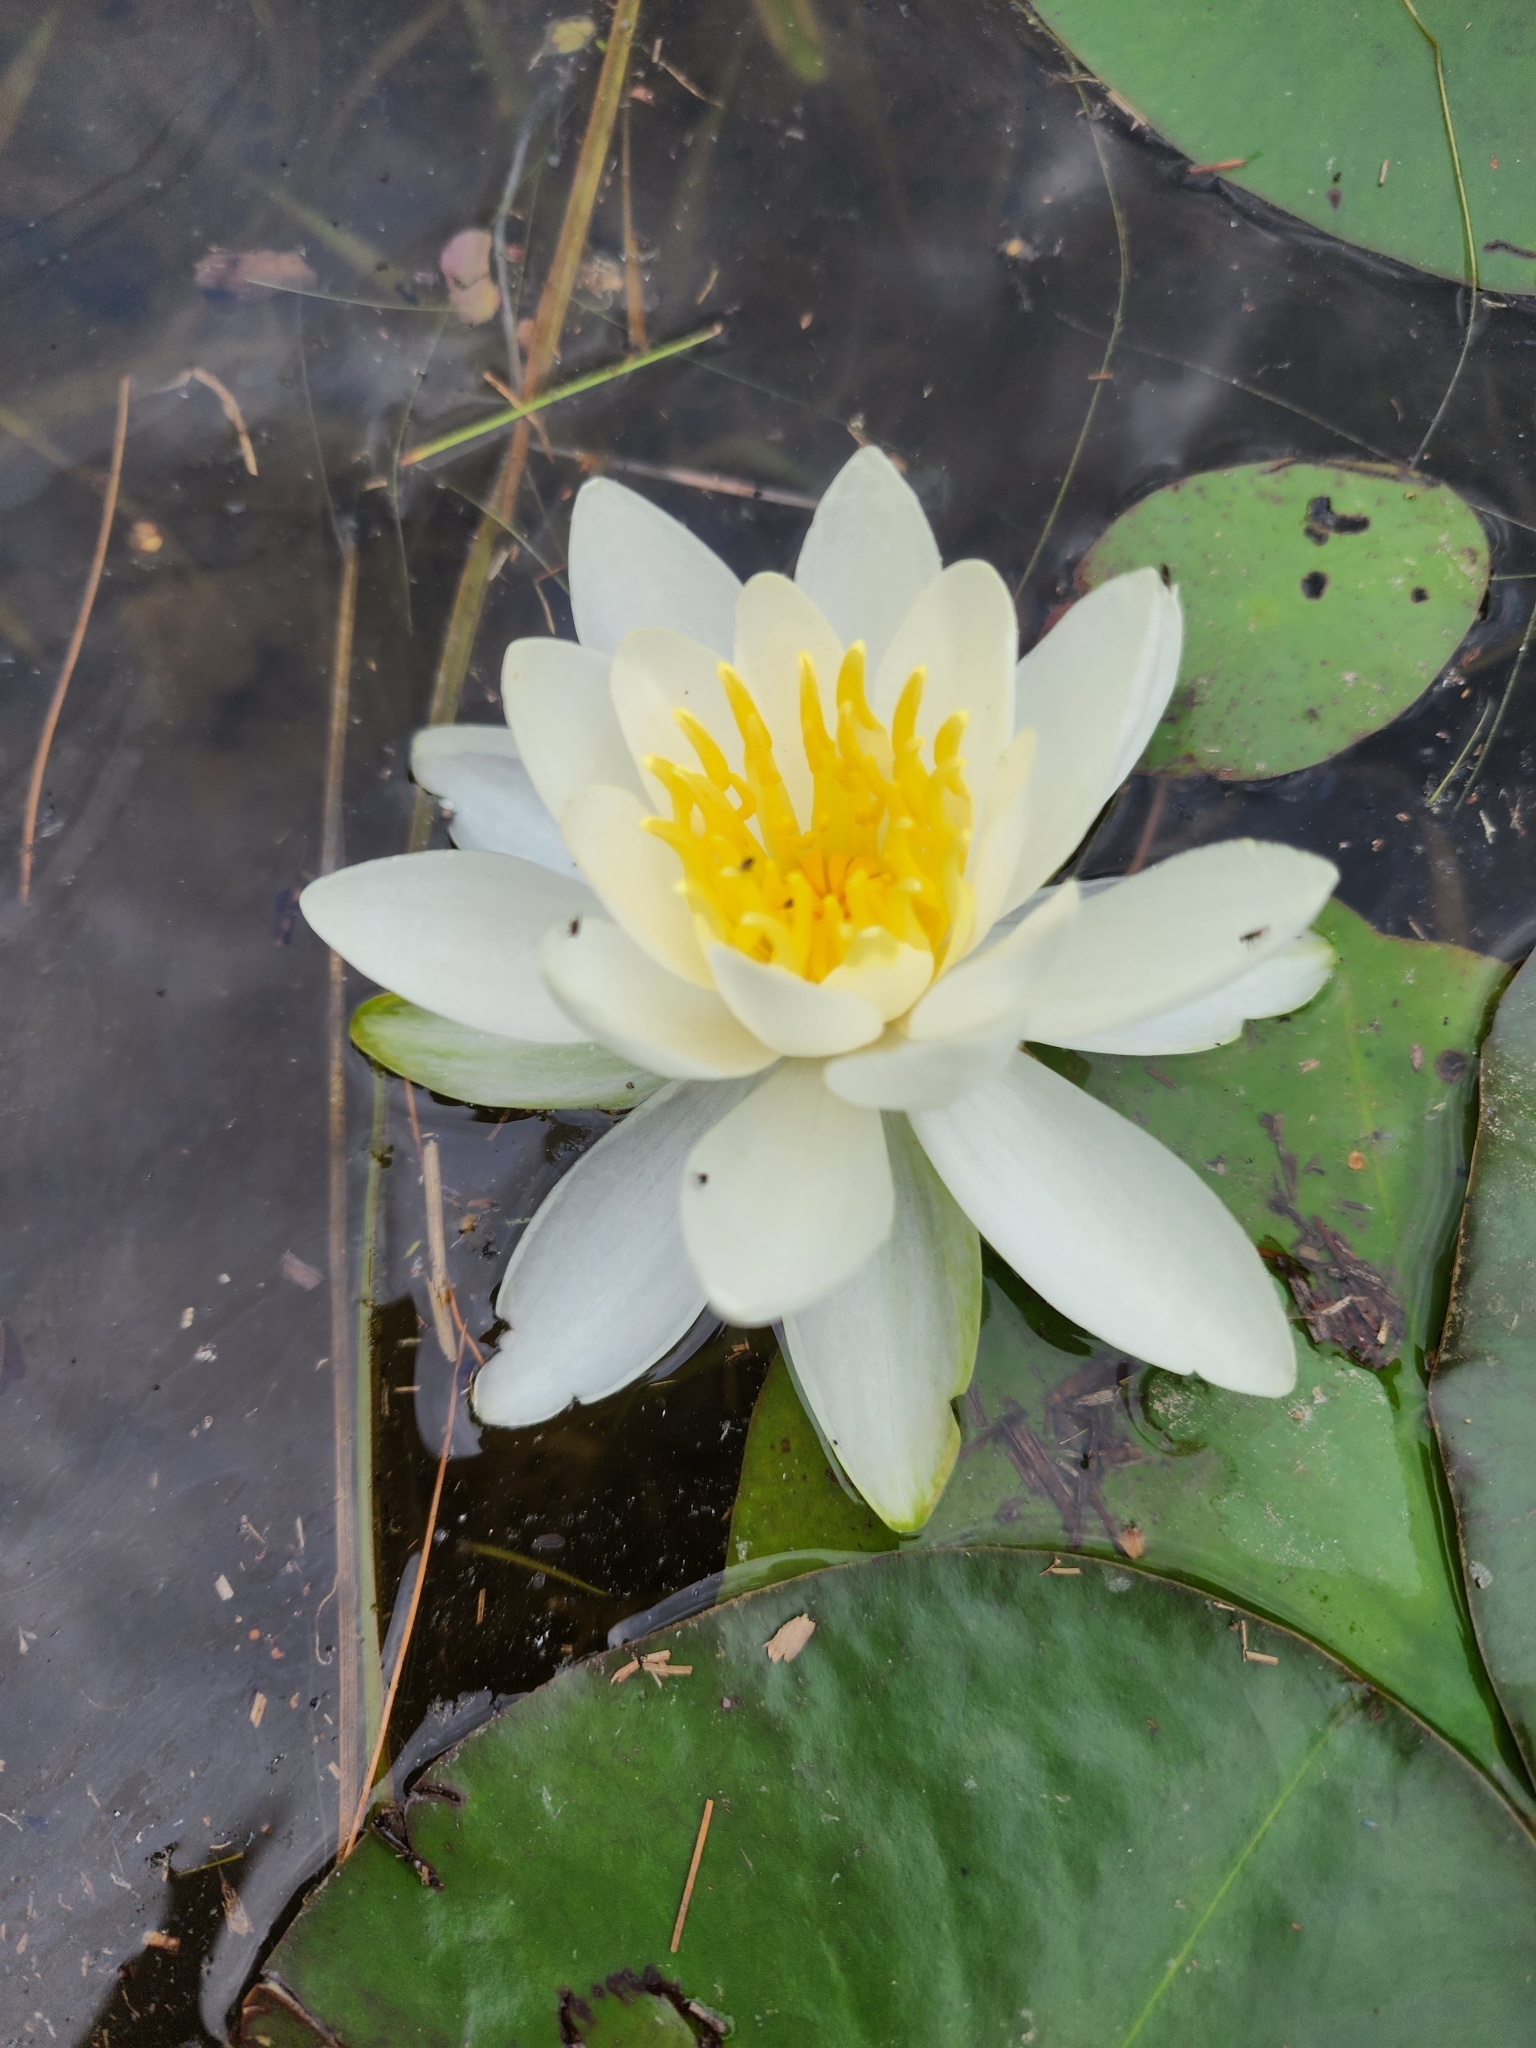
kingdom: Plantae
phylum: Tracheophyta
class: Magnoliopsida
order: Nymphaeales
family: Nymphaeaceae
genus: Nymphaea
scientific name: Nymphaea odorata
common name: Fragrant water-lily
